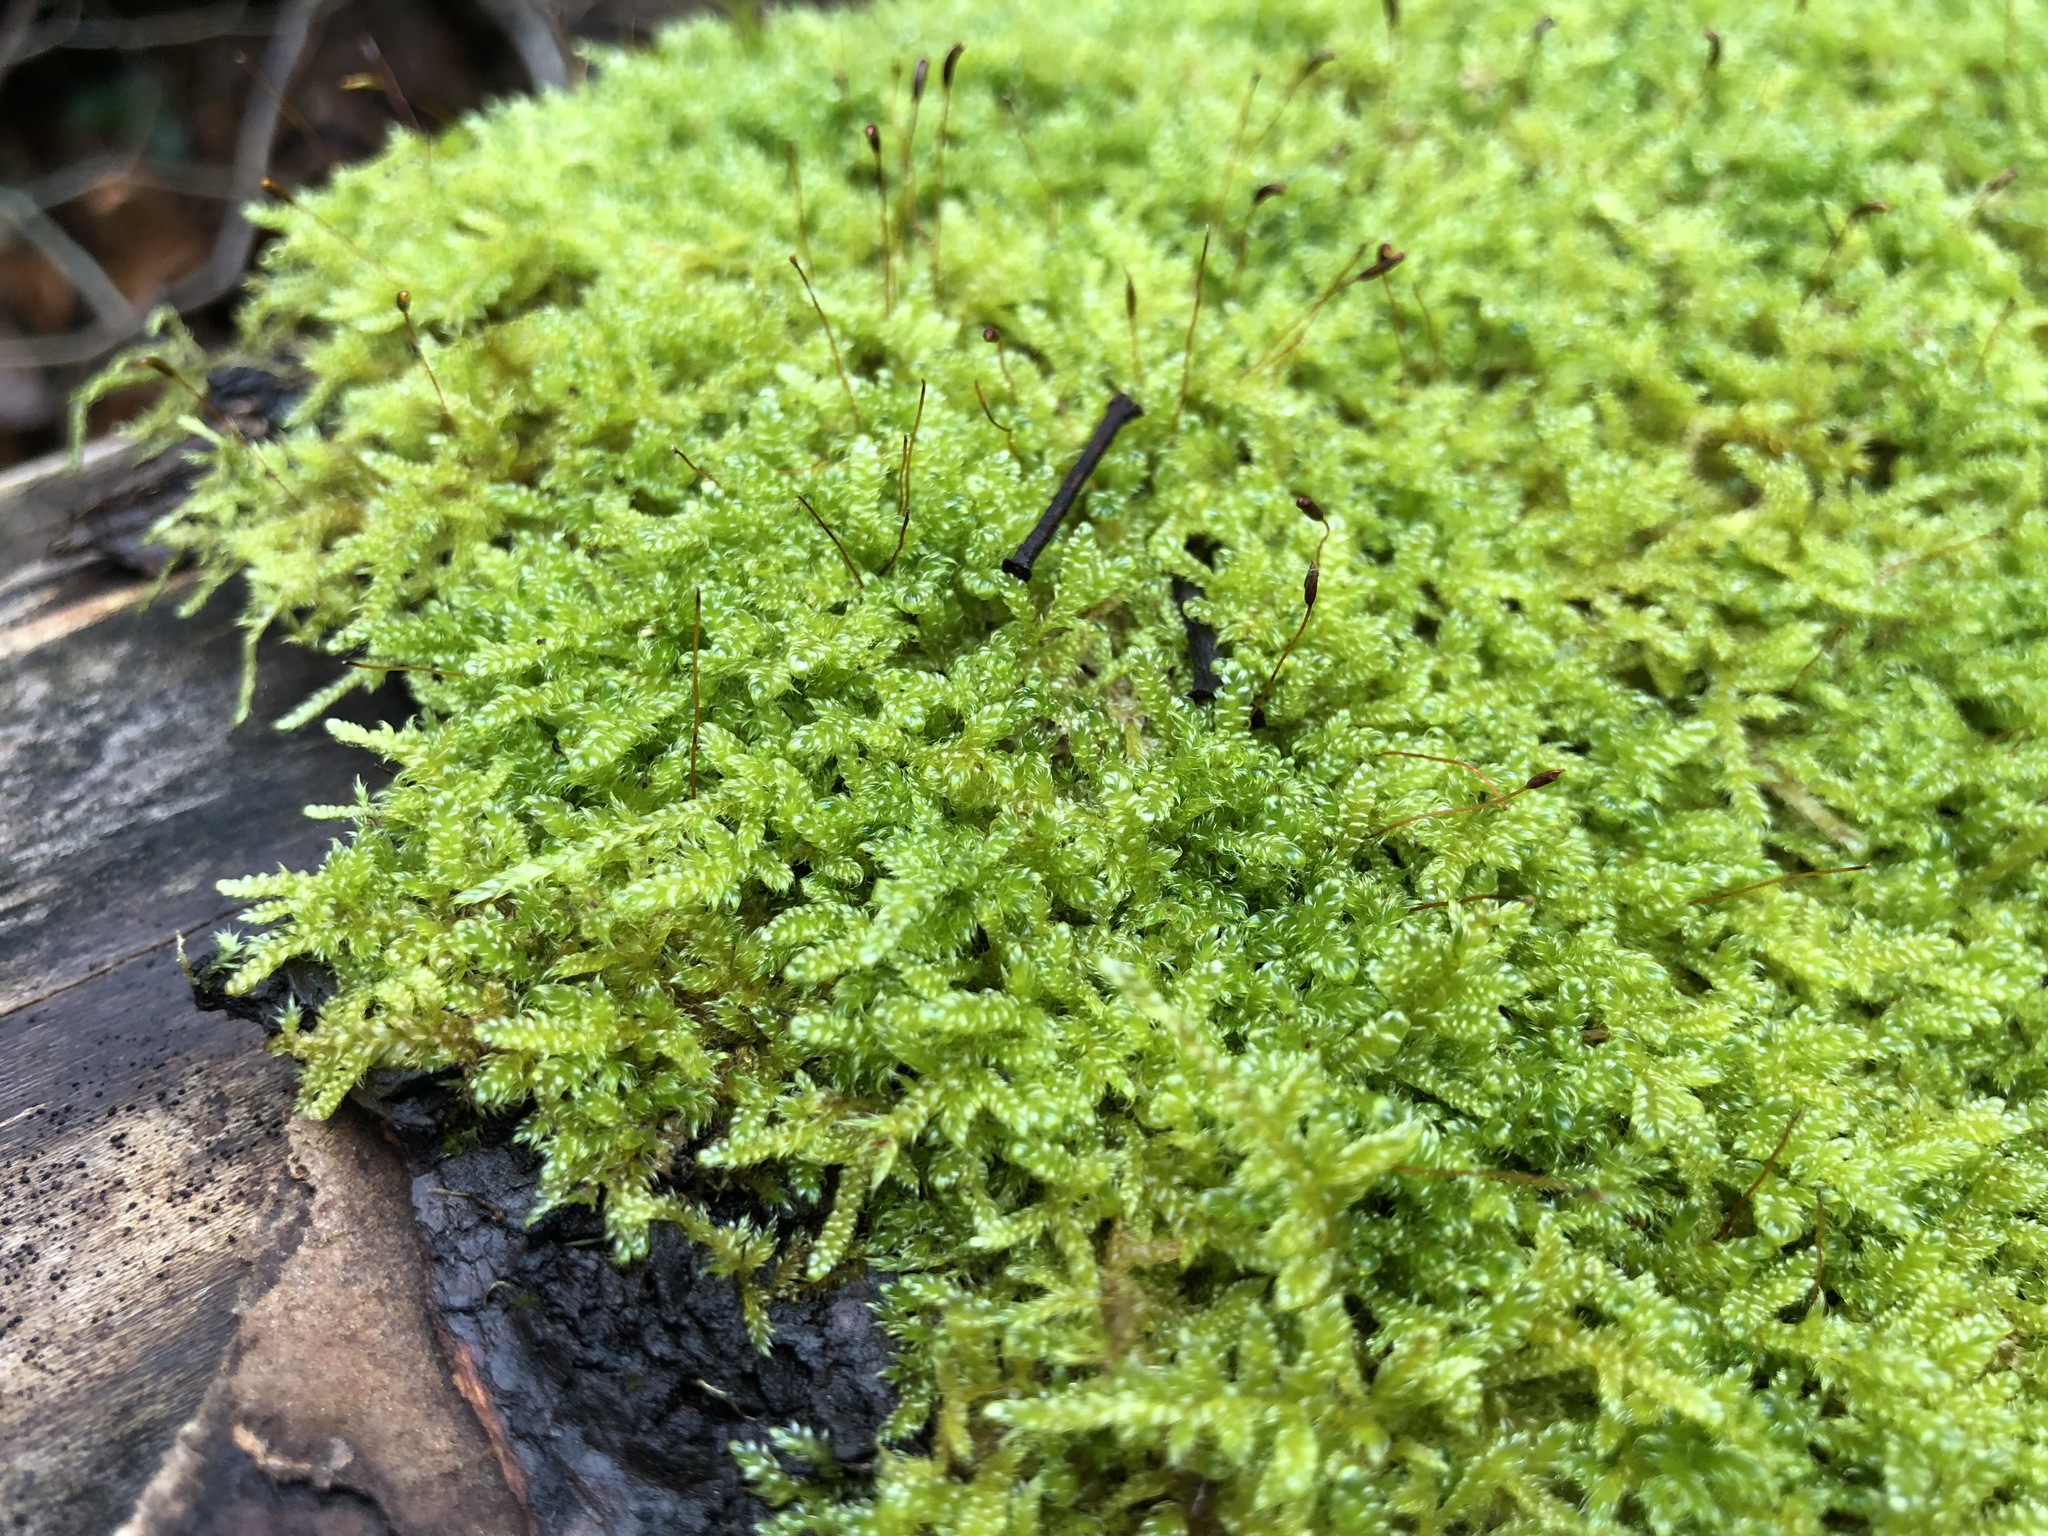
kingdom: Plantae
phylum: Bryophyta
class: Bryopsida
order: Hypnales
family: Hypnaceae
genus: Hypnum
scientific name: Hypnum cupressiforme
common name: Cypress-leaved plait-moss
